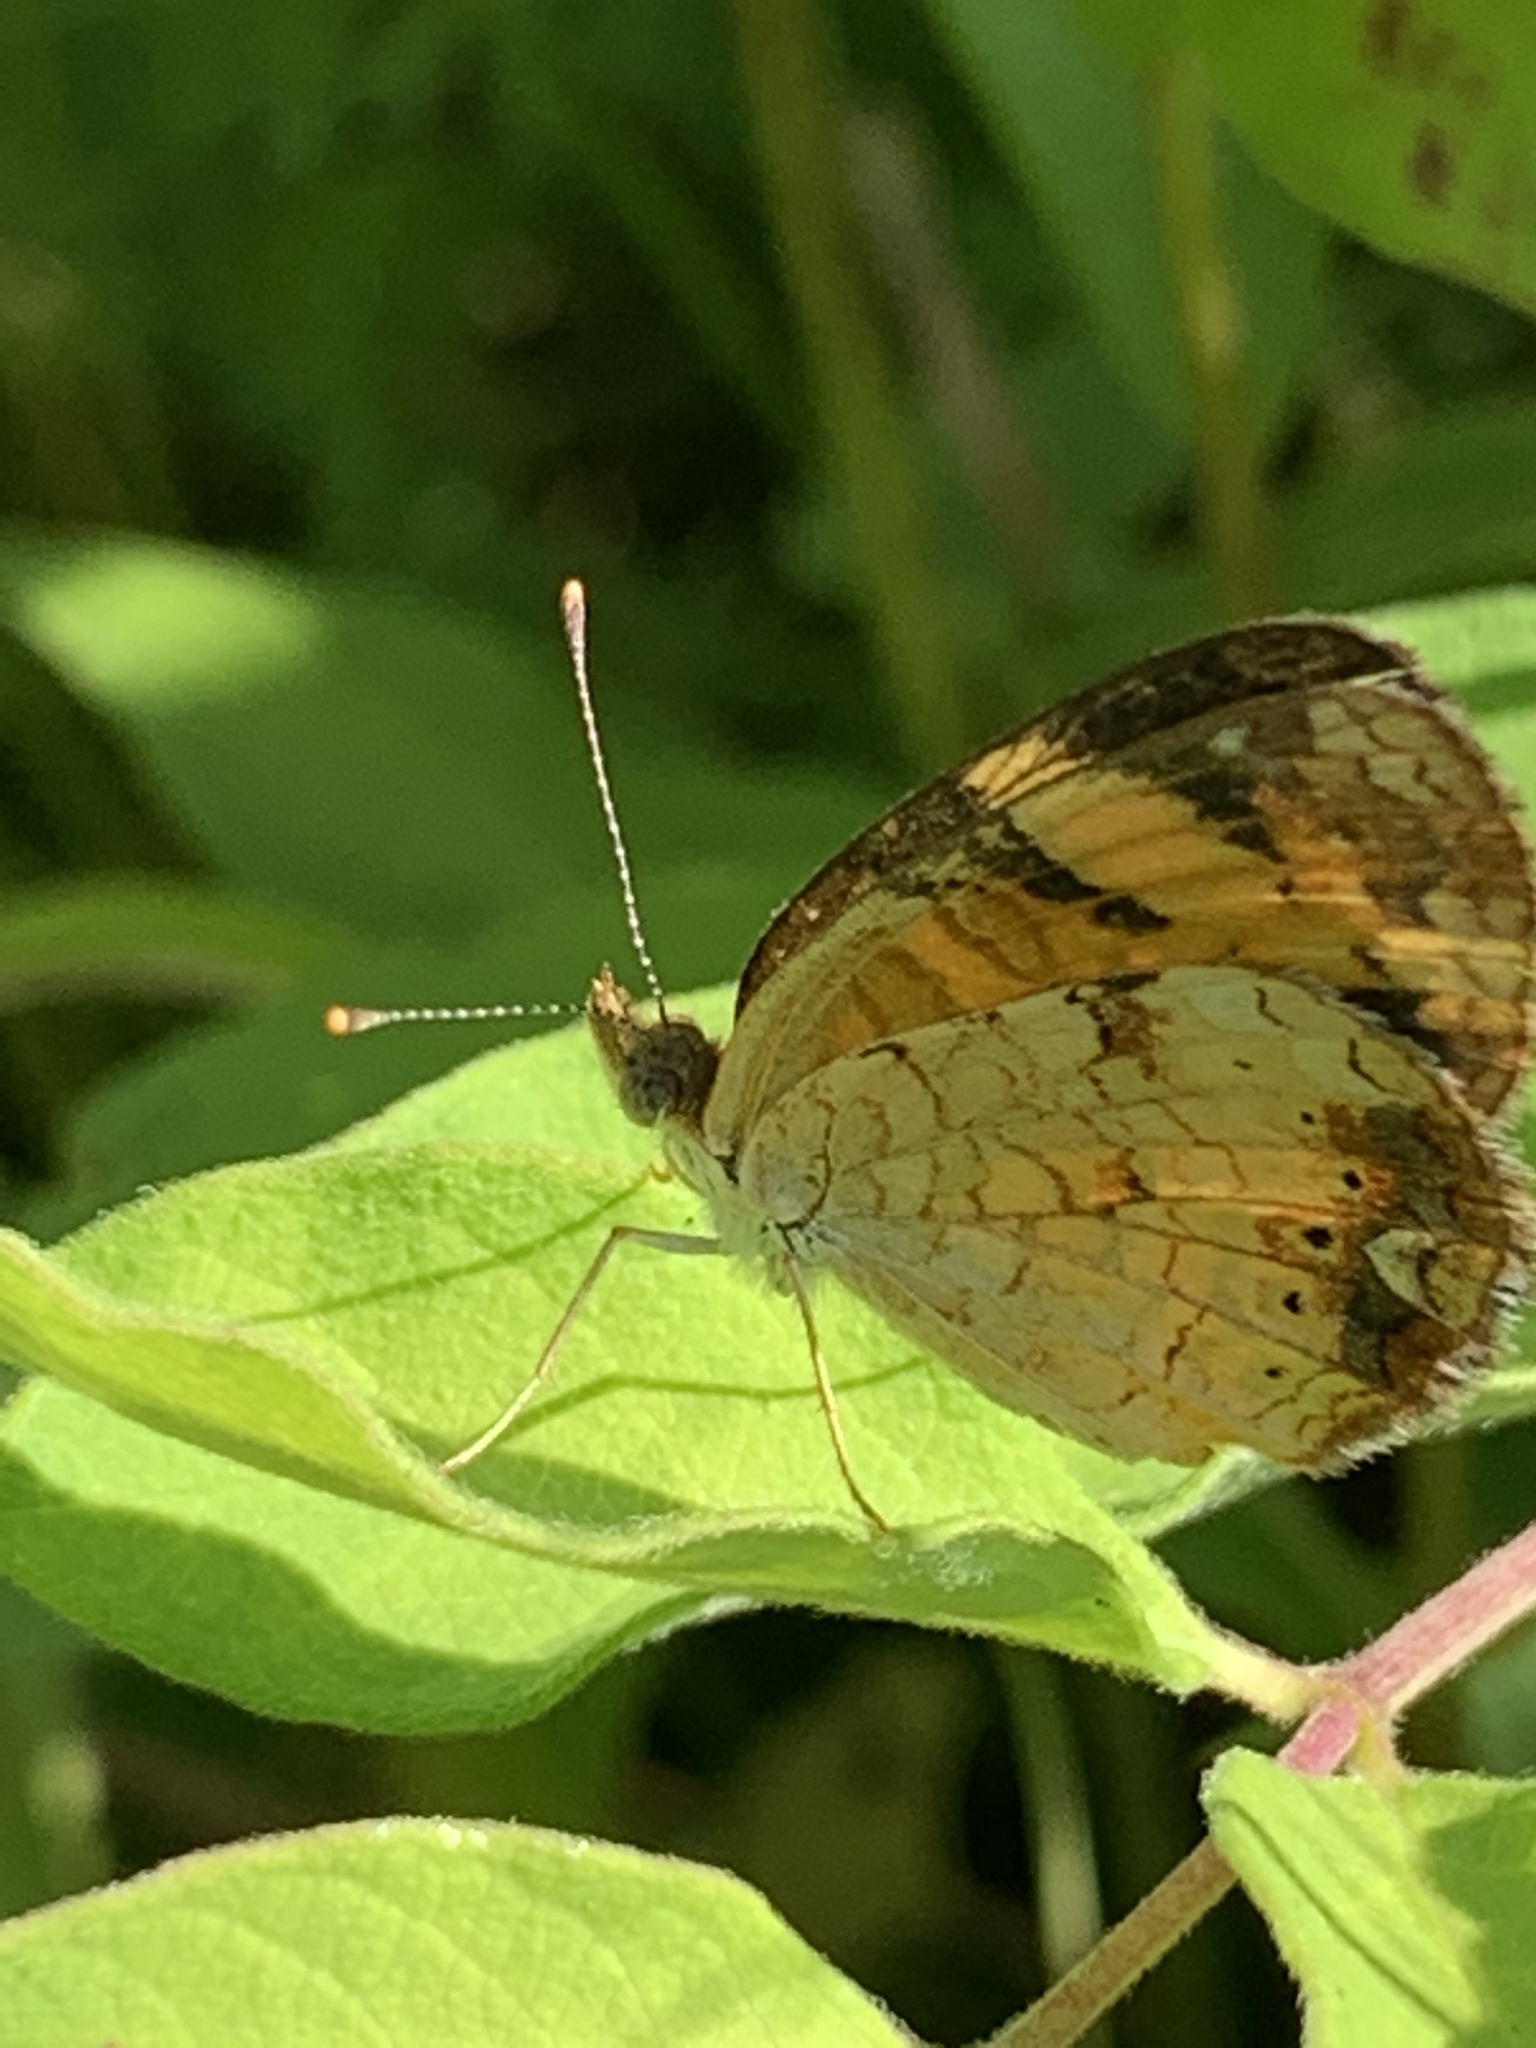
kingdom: Animalia
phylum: Arthropoda
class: Insecta
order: Lepidoptera
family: Nymphalidae
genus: Phyciodes
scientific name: Phyciodes tharos
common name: Pearl crescent
